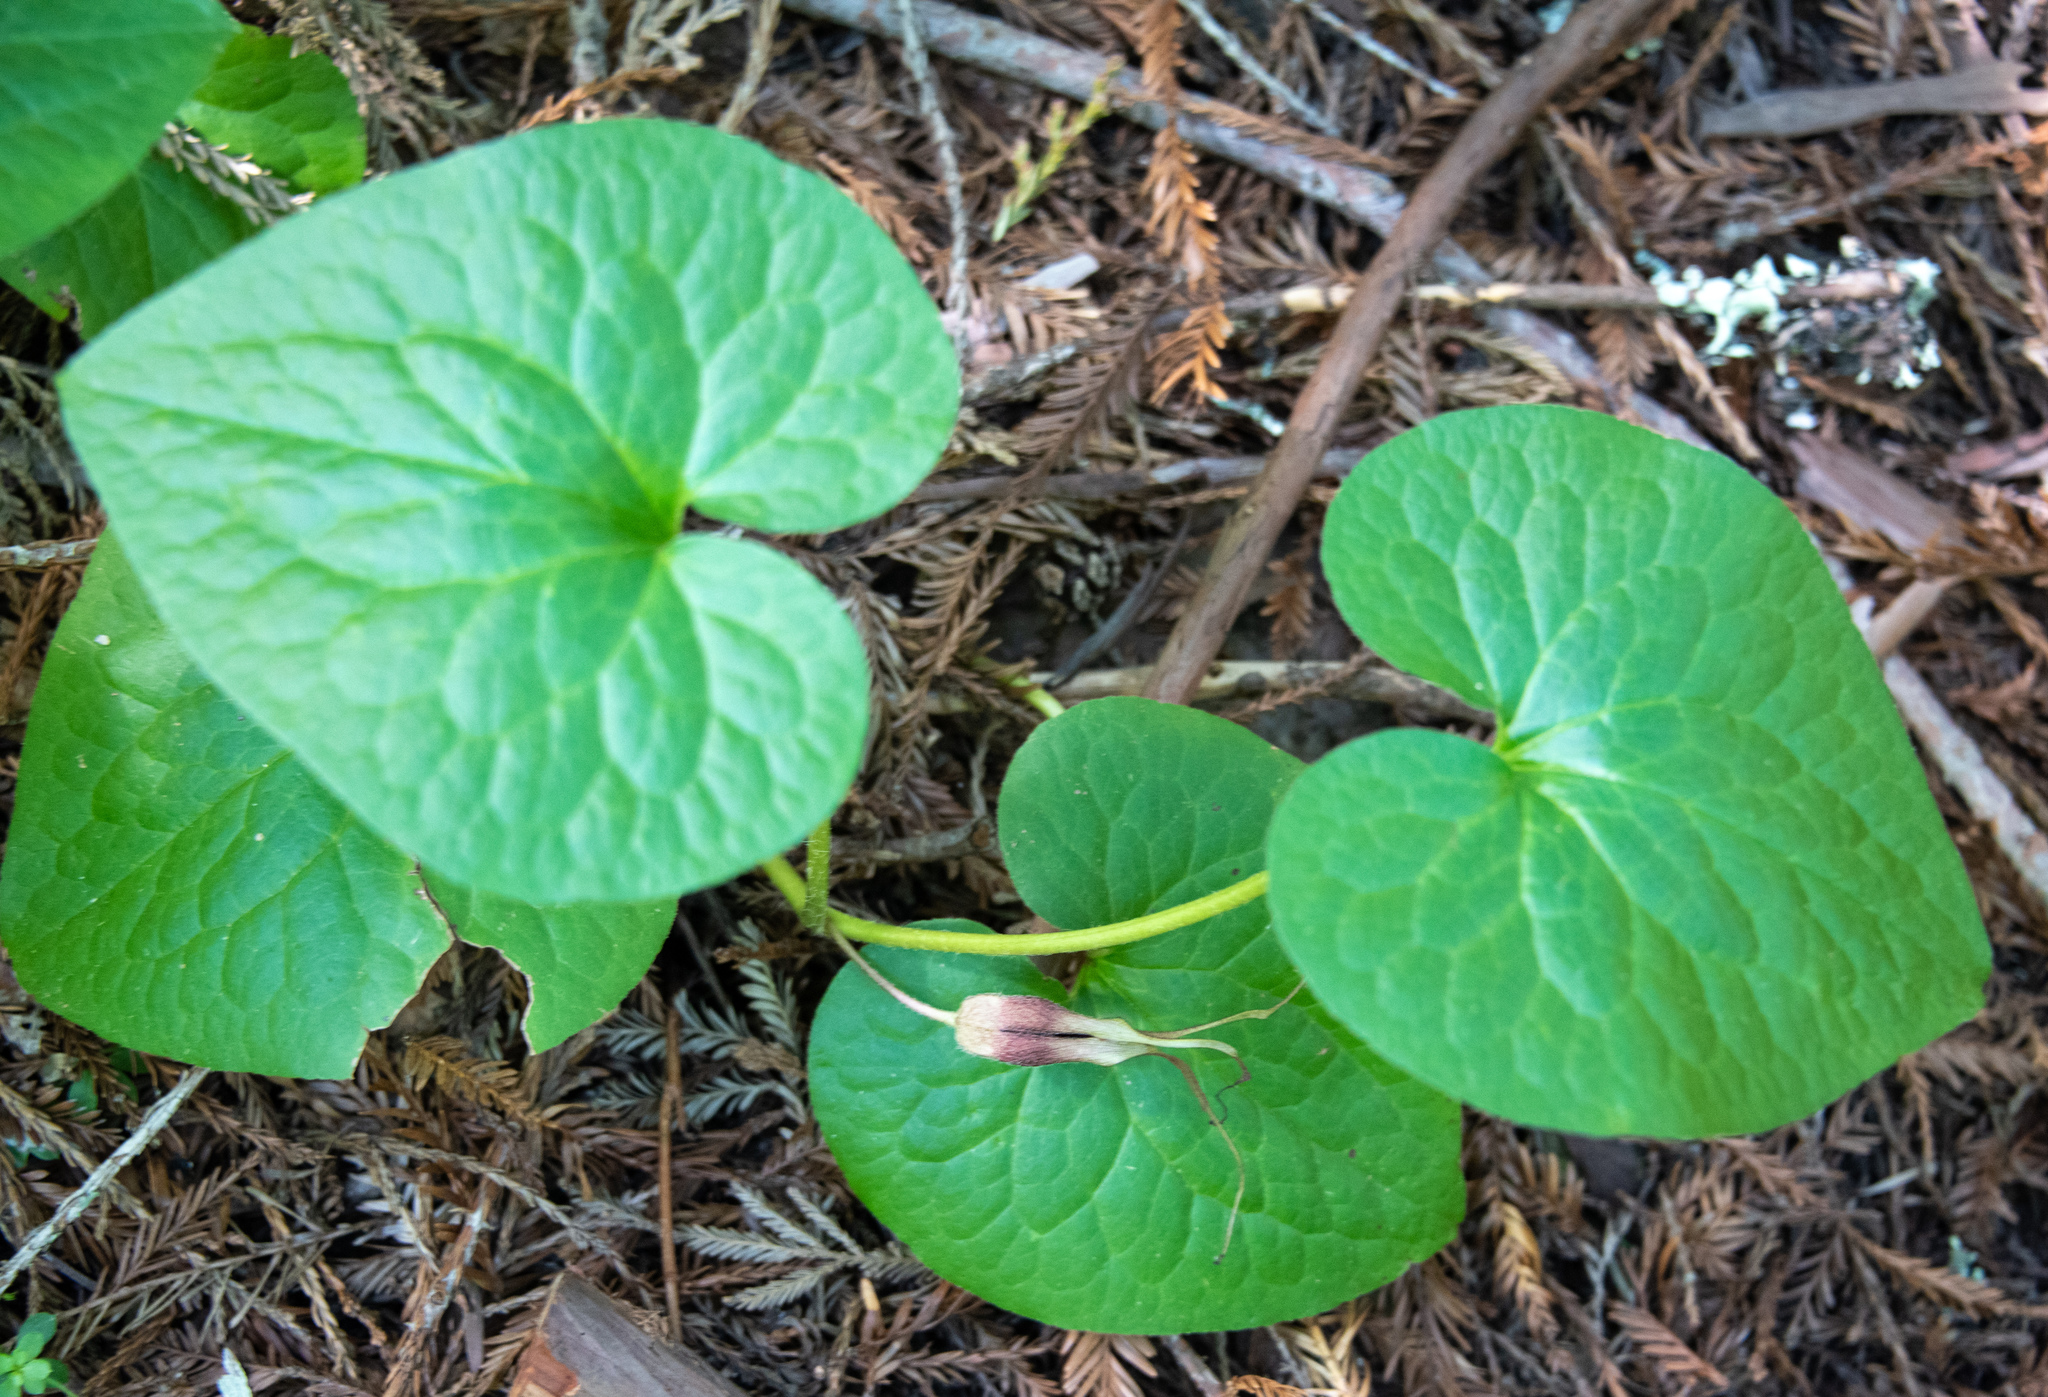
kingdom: Plantae
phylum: Tracheophyta
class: Magnoliopsida
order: Piperales
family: Aristolochiaceae
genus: Asarum
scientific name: Asarum caudatum
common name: Wild ginger
